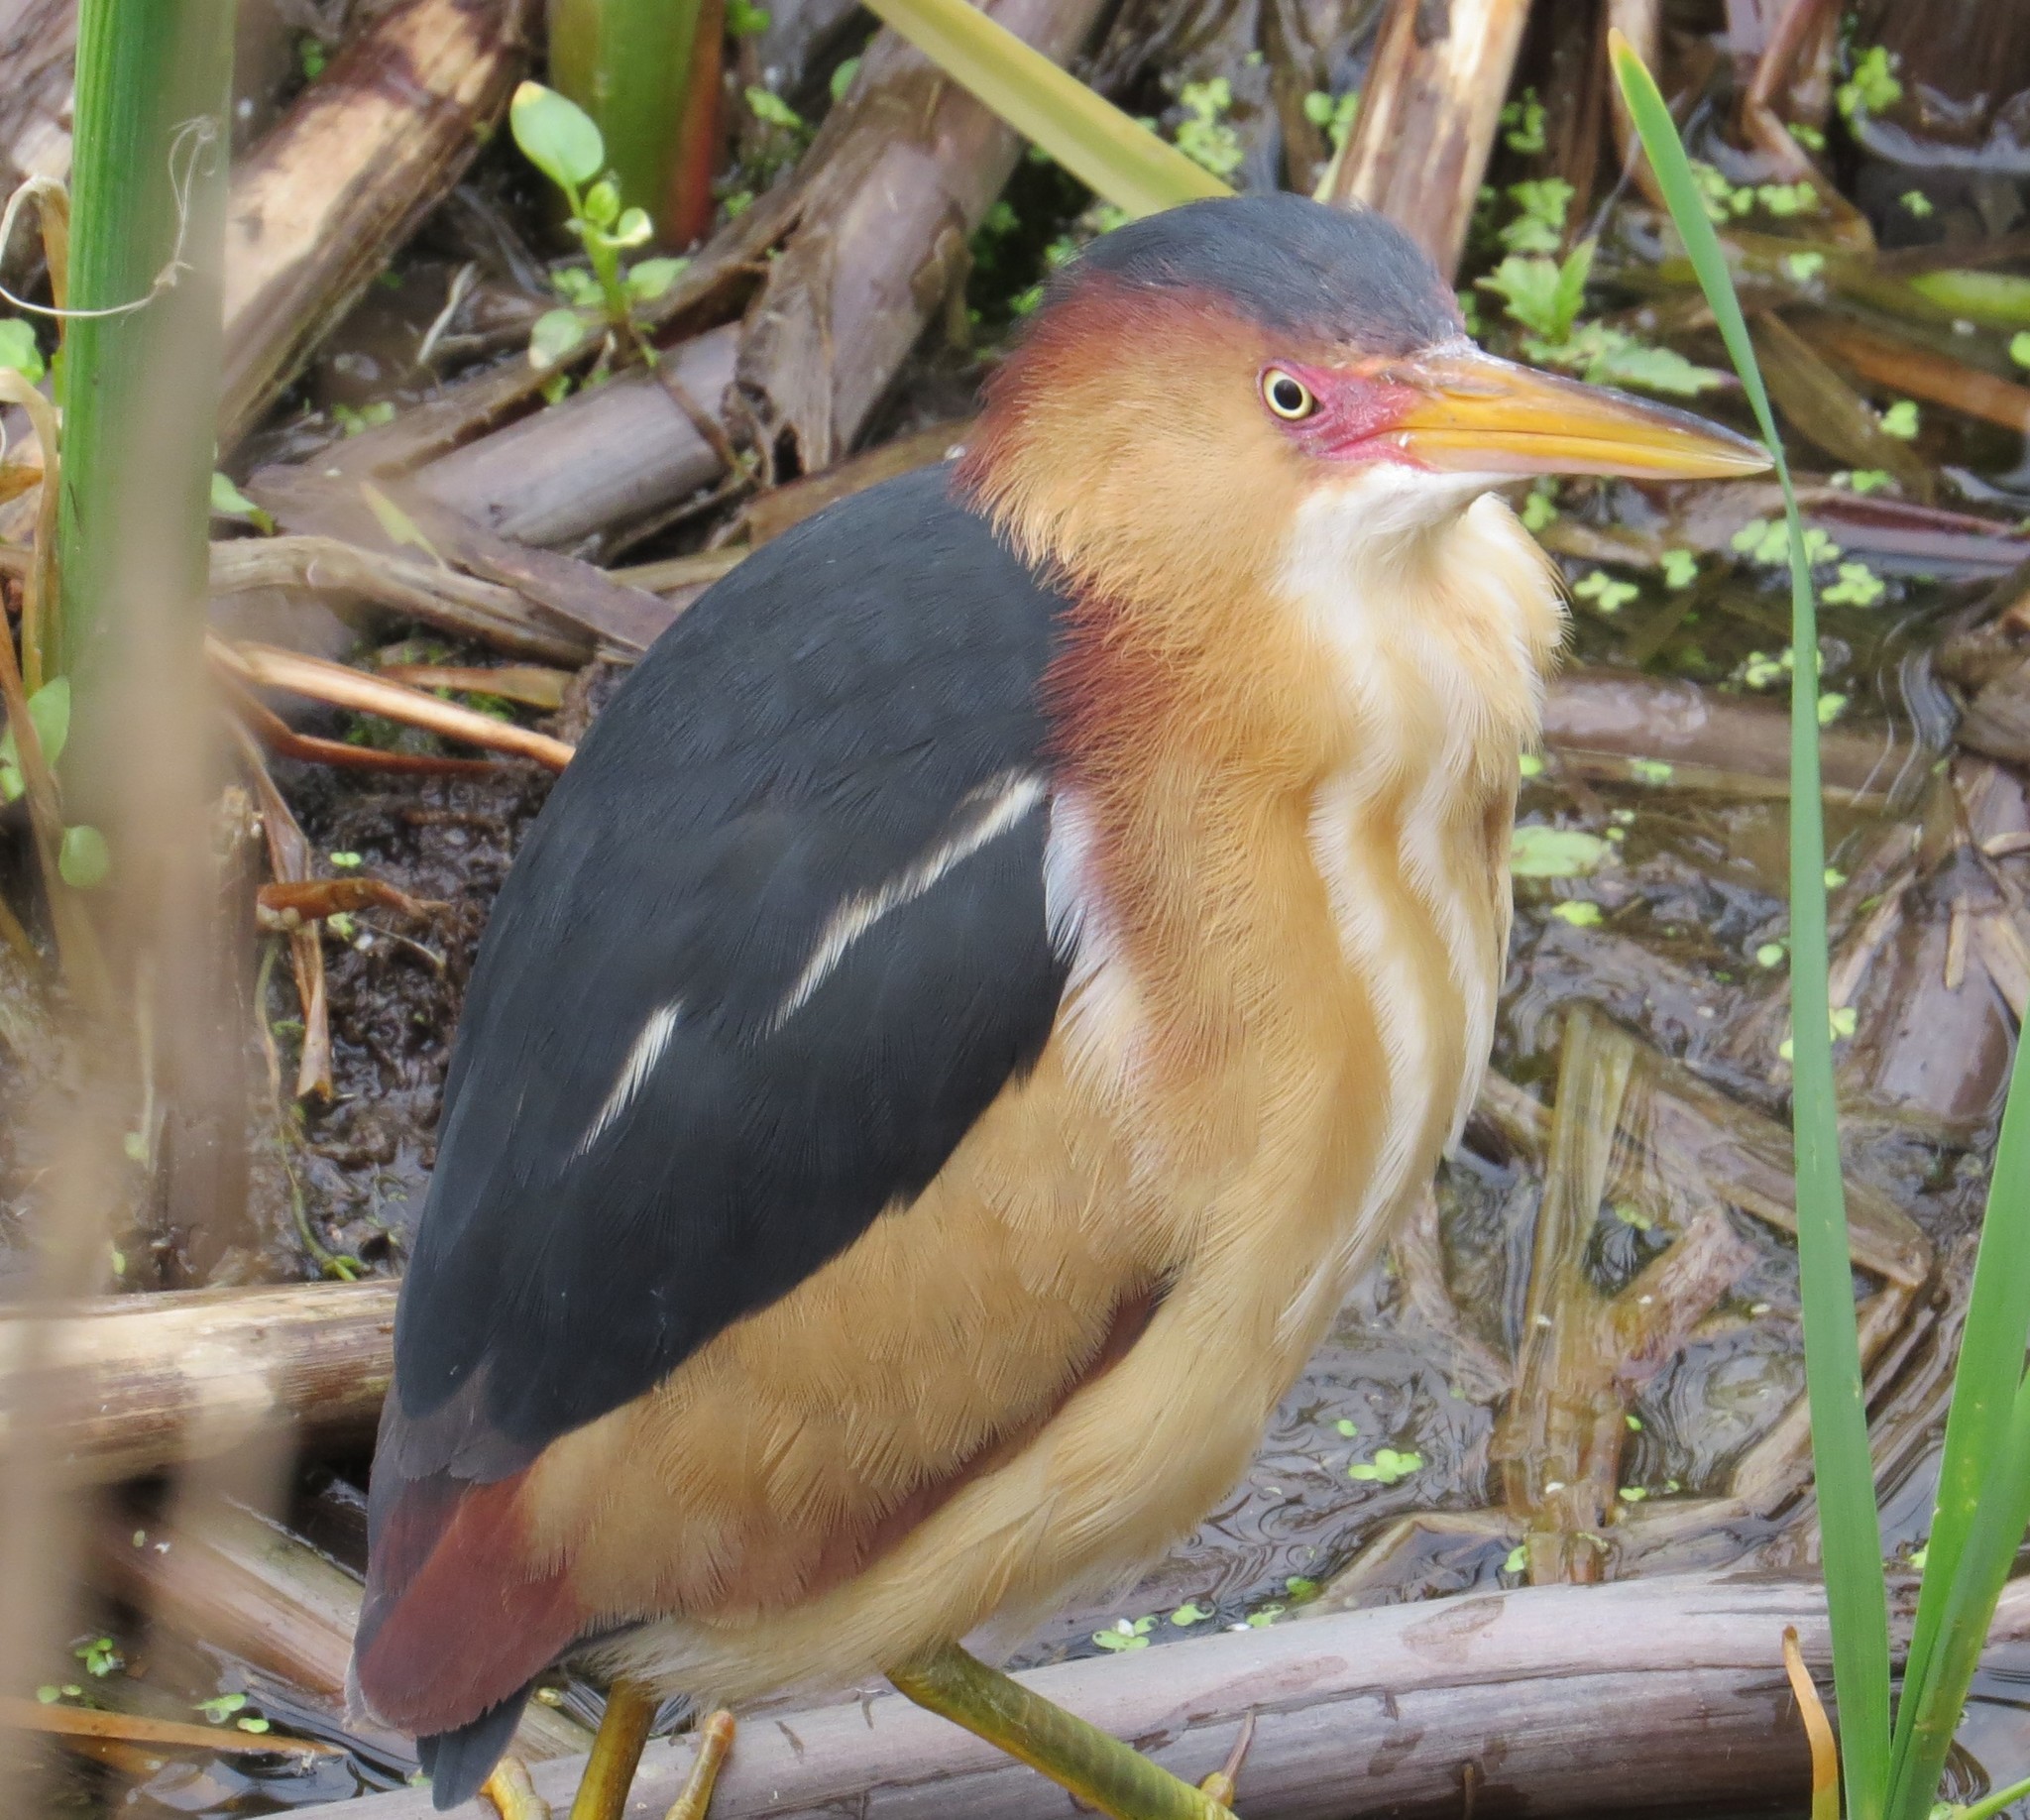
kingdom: Animalia
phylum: Chordata
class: Aves
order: Pelecaniformes
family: Ardeidae
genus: Ixobrychus
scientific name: Ixobrychus exilis
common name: Least bittern
